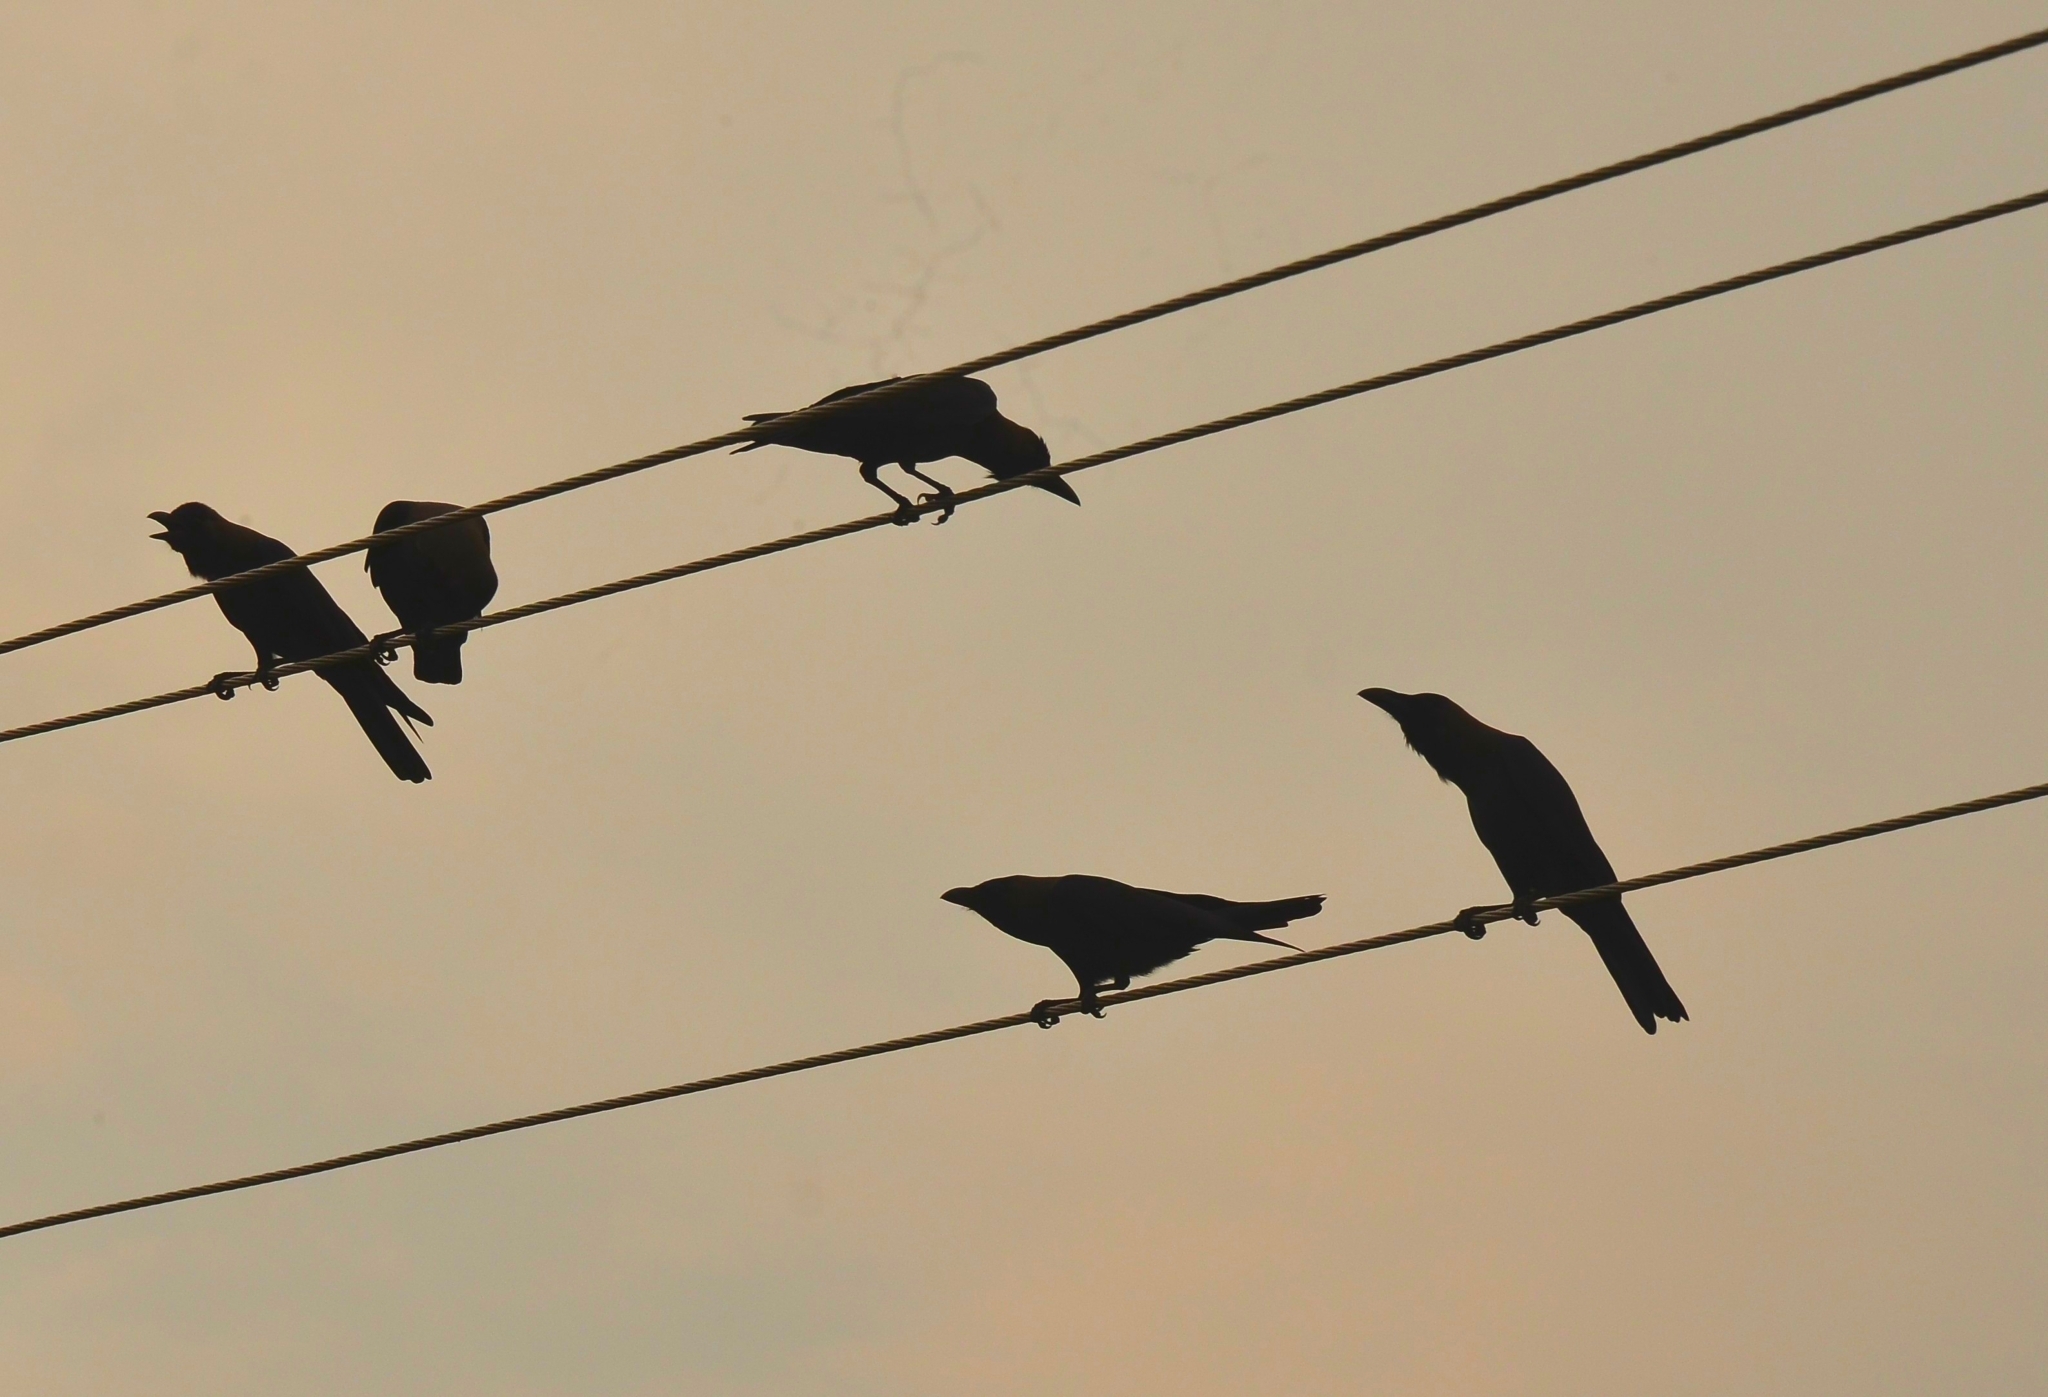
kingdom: Animalia
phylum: Chordata
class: Aves
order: Passeriformes
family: Corvidae
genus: Corvus
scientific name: Corvus splendens
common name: House crow
